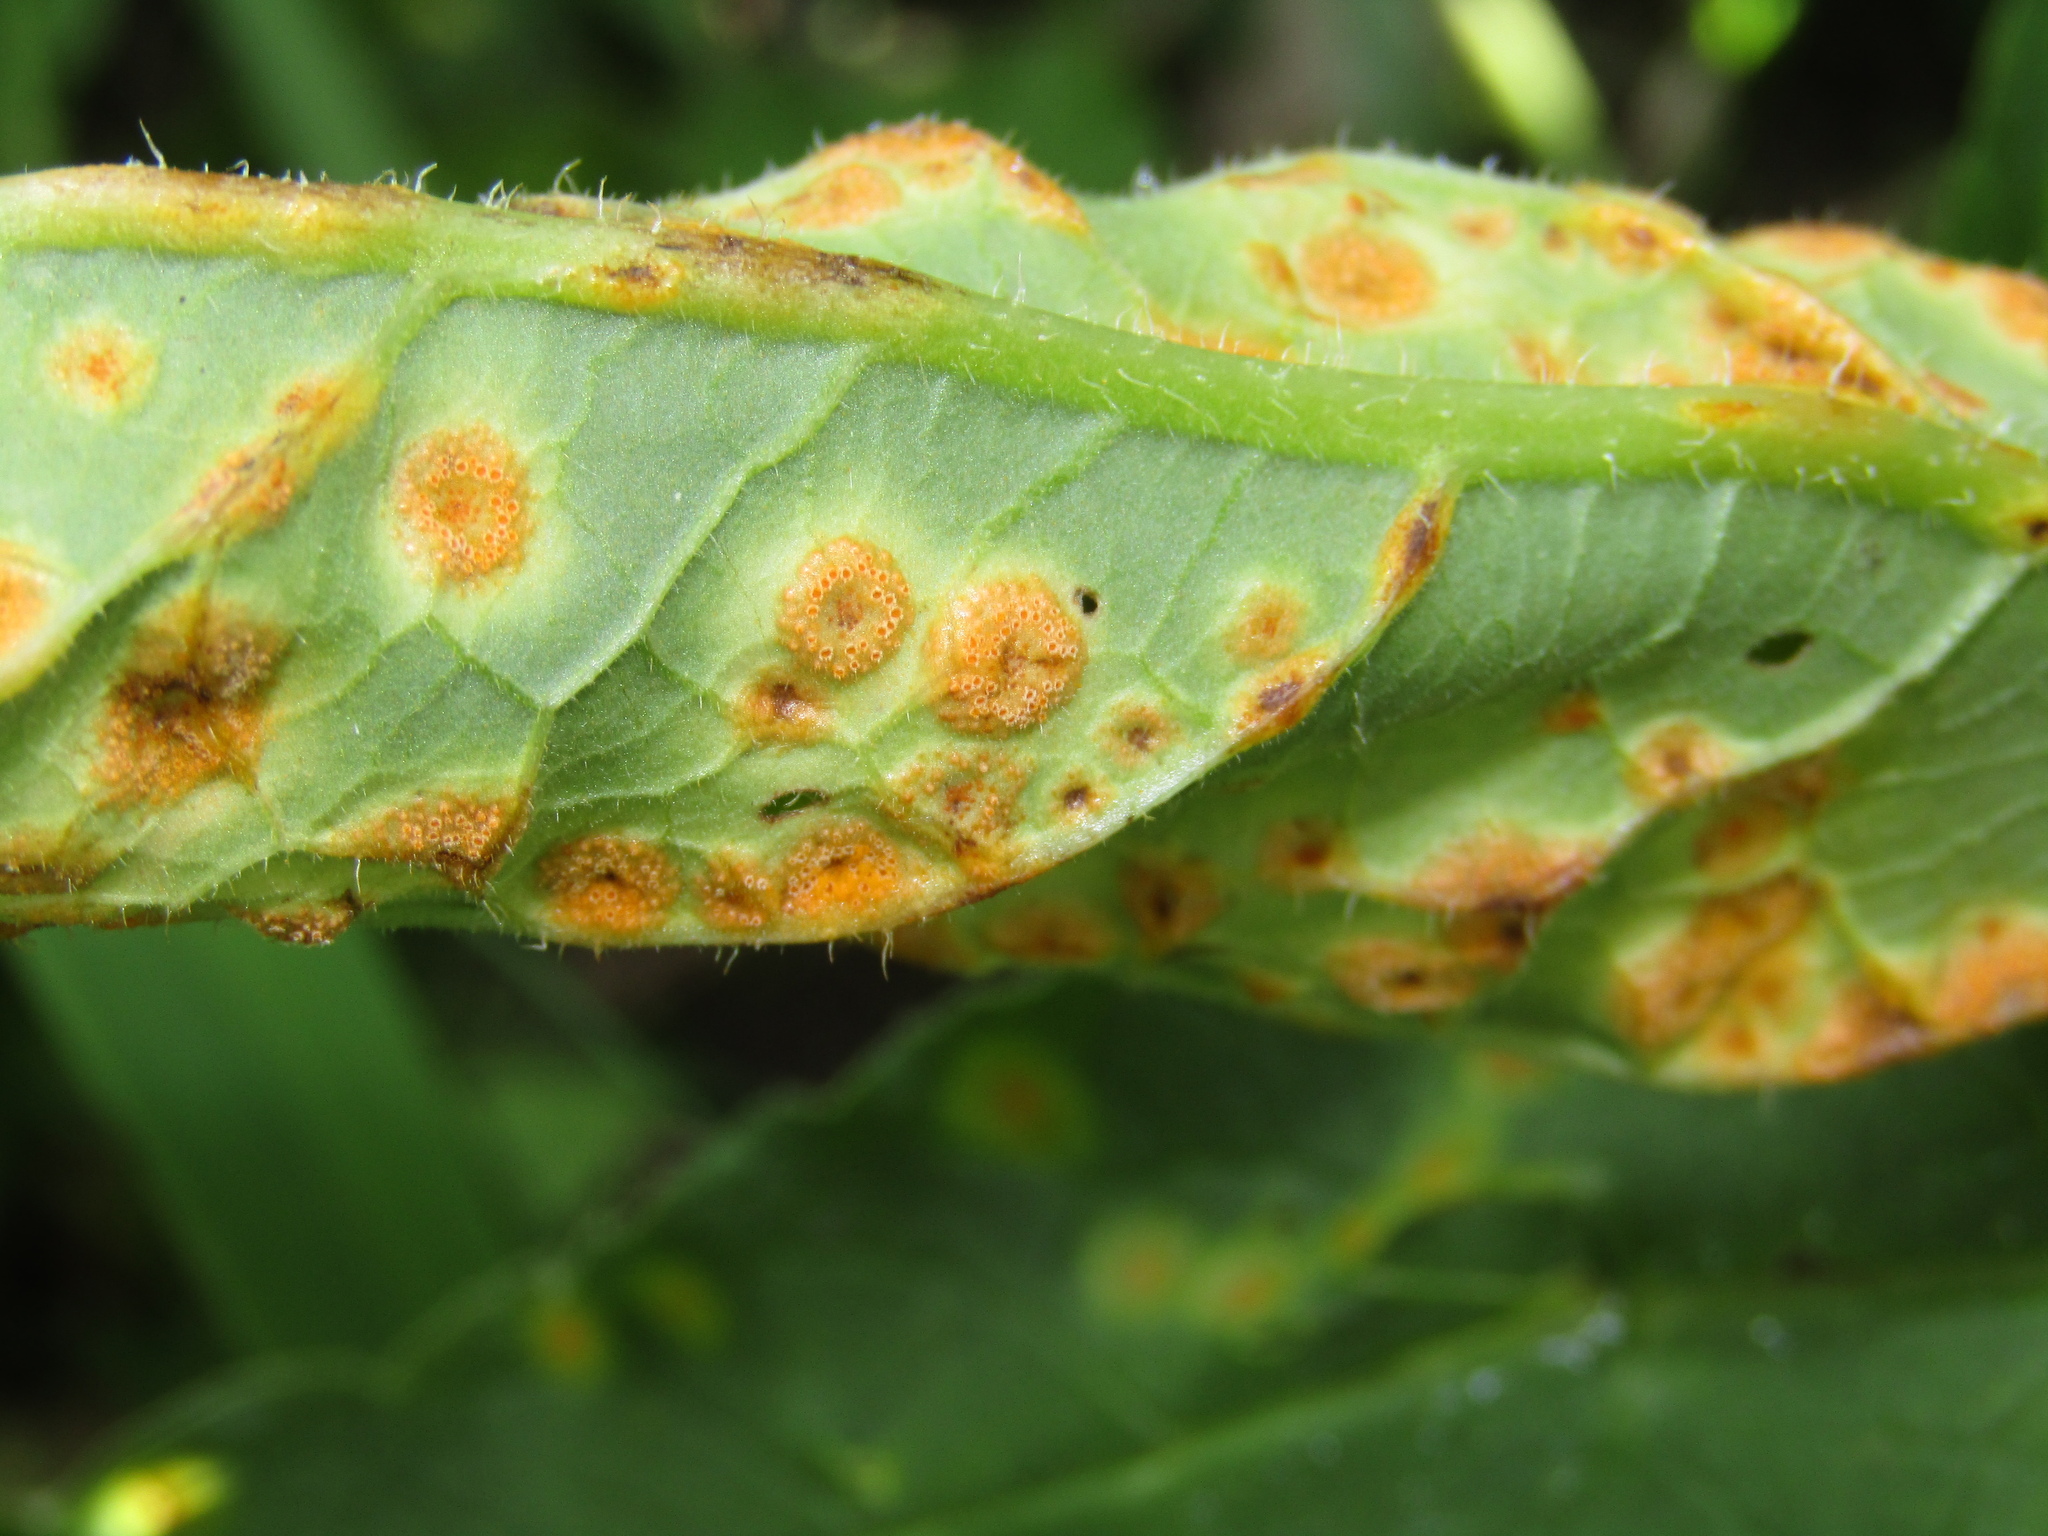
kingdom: Fungi
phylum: Basidiomycota
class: Pucciniomycetes
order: Pucciniales
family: Pucciniaceae
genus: Puccinia
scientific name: Puccinia bromina
